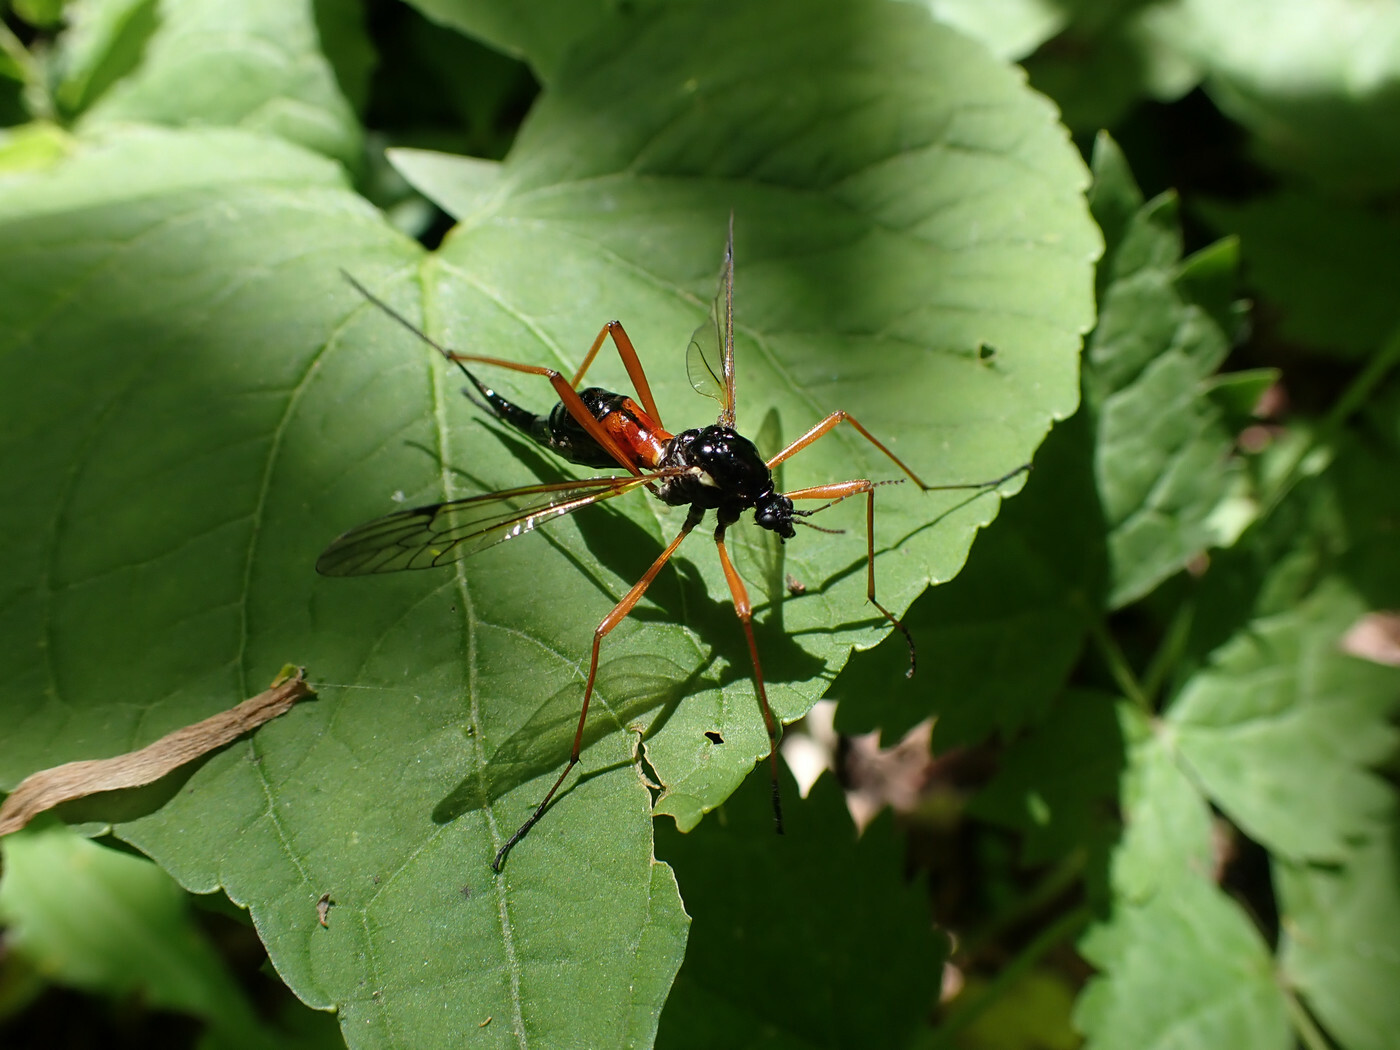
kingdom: Animalia
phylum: Arthropoda
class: Insecta
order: Diptera
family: Tipulidae
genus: Tanyptera
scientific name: Tanyptera dorsalis
